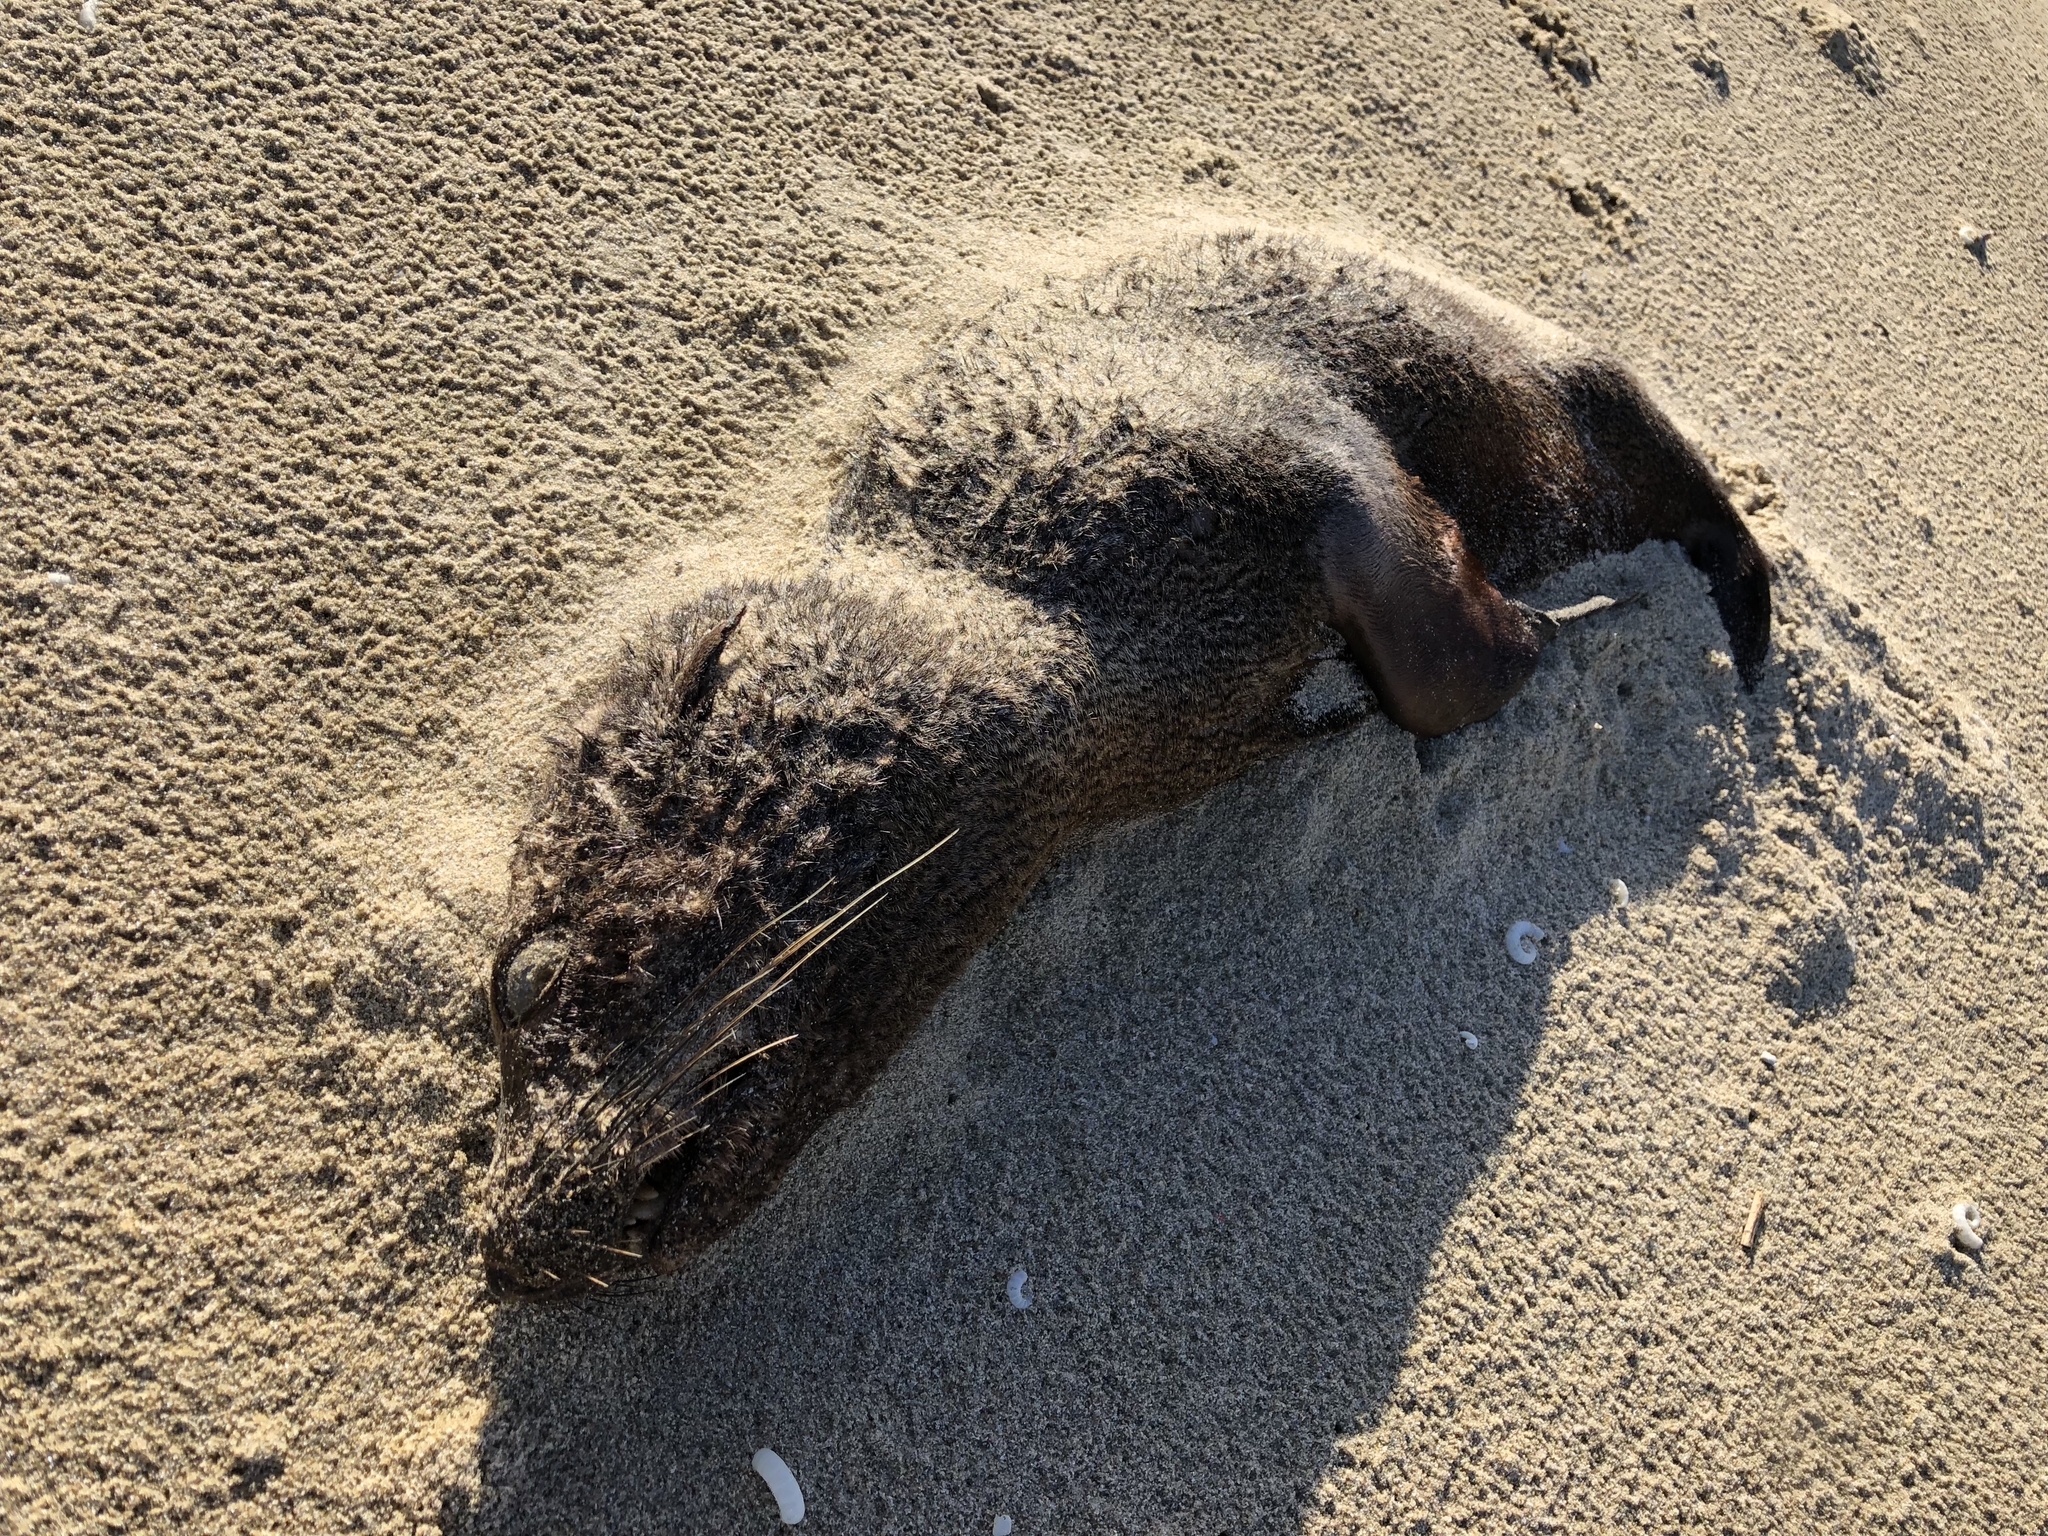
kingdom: Animalia
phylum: Chordata
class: Mammalia
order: Carnivora
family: Otariidae
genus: Arctocephalus
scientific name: Arctocephalus forsteri
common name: New zealand fur seal
